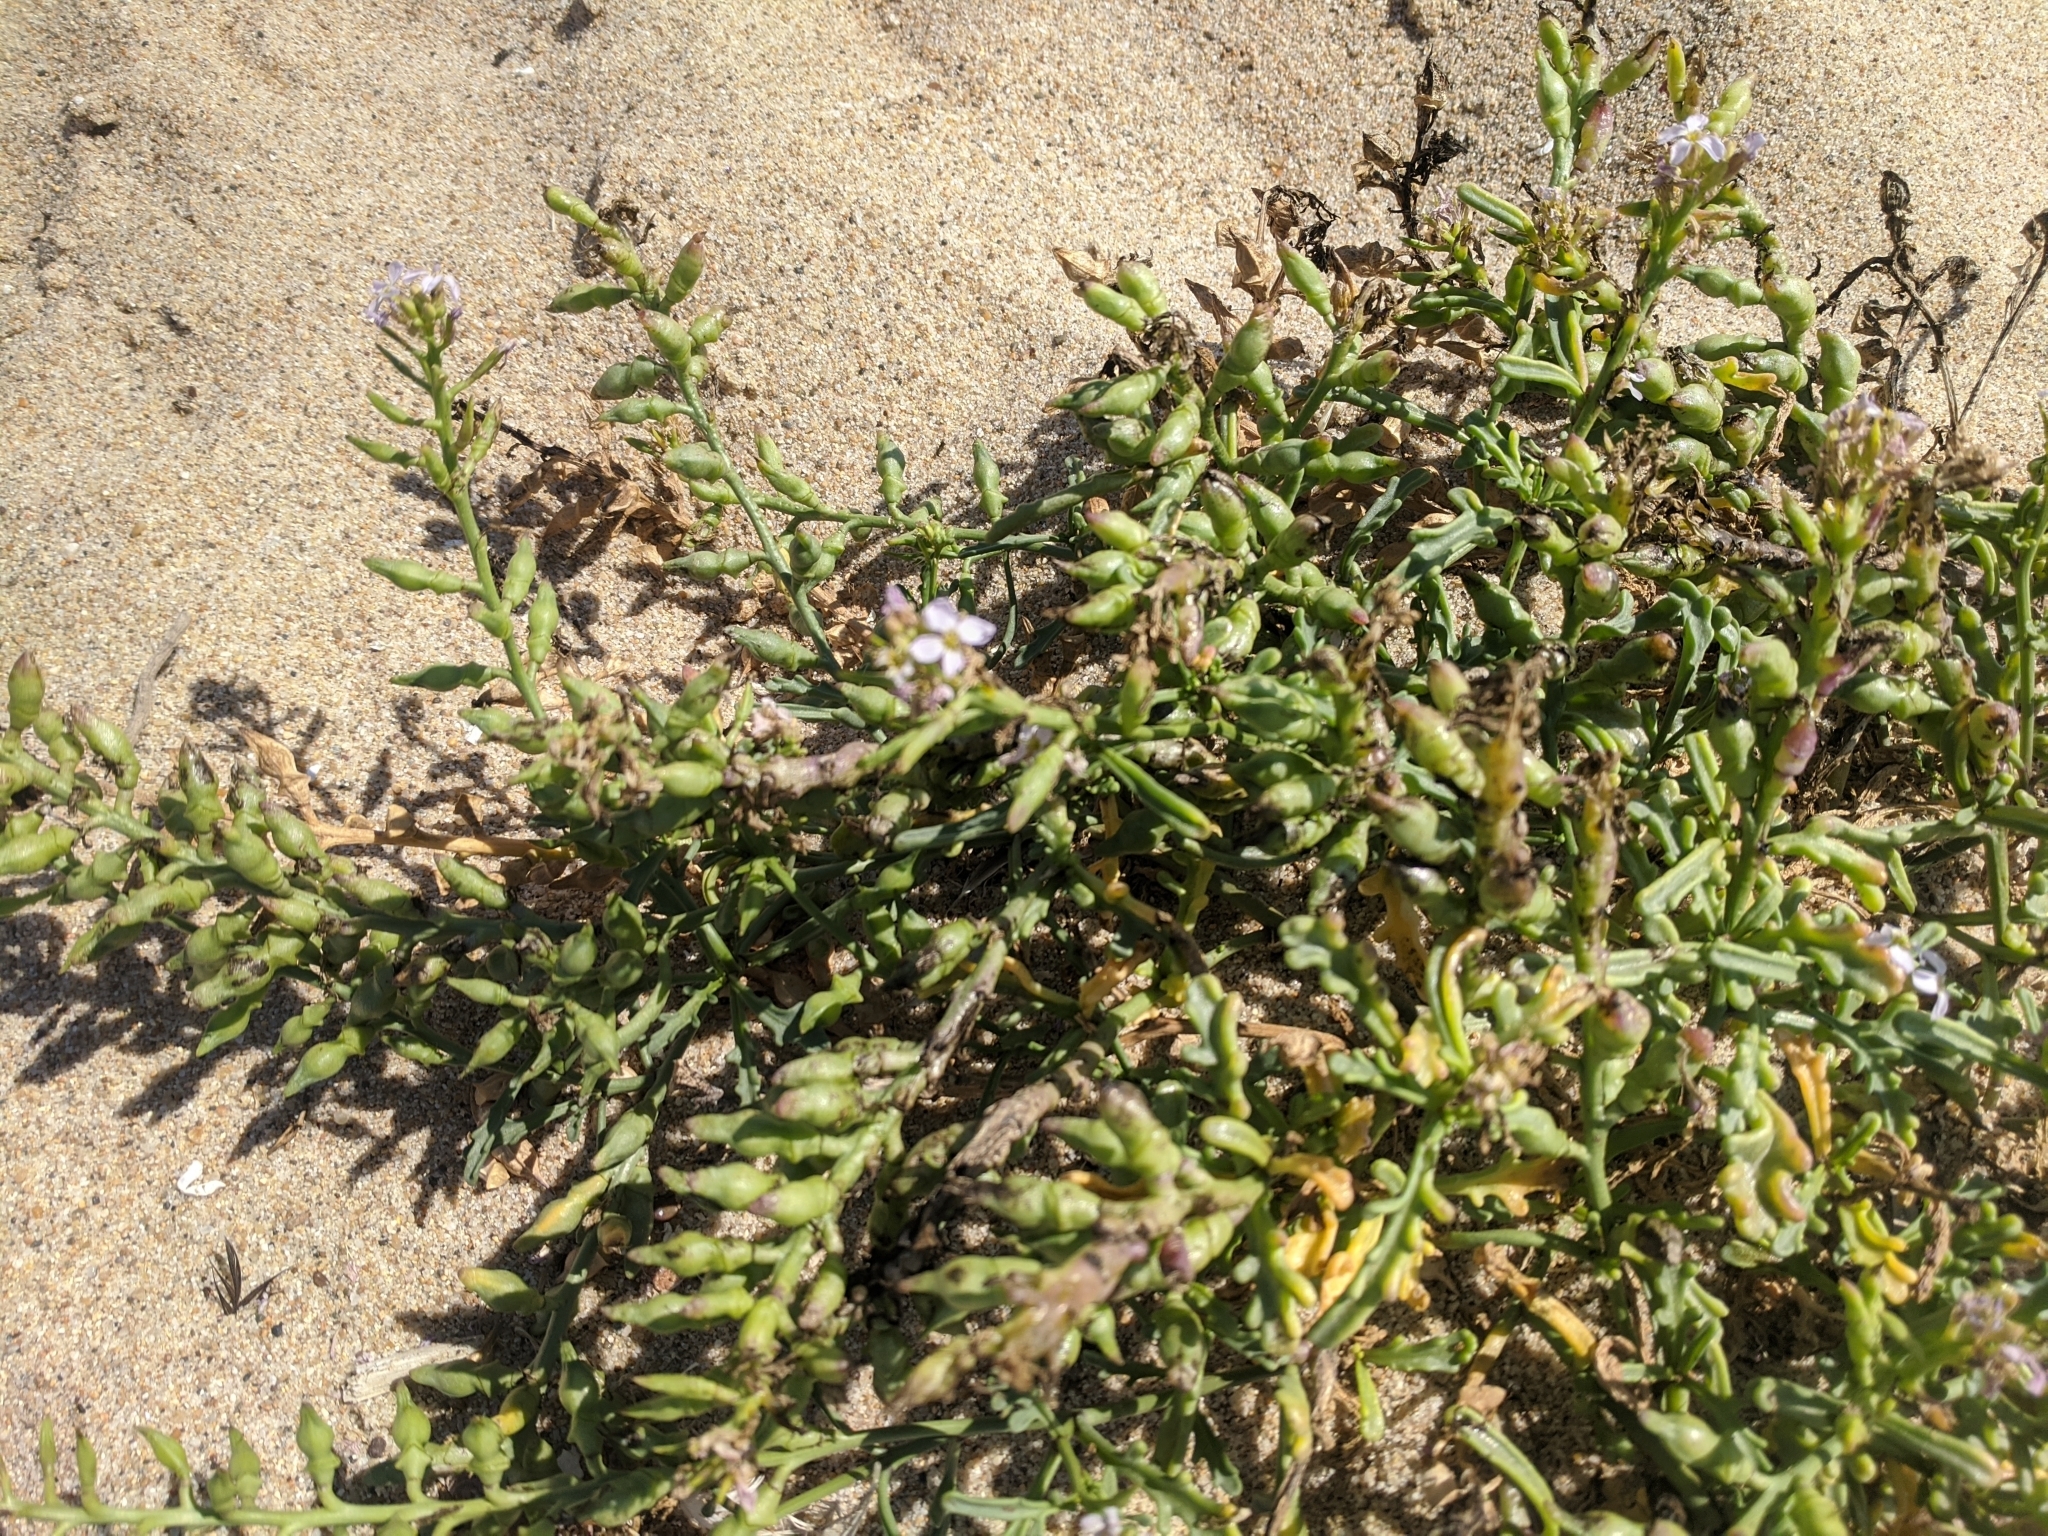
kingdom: Plantae
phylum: Tracheophyta
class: Magnoliopsida
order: Brassicales
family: Brassicaceae
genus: Cakile
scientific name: Cakile maritima
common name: Sea rocket
